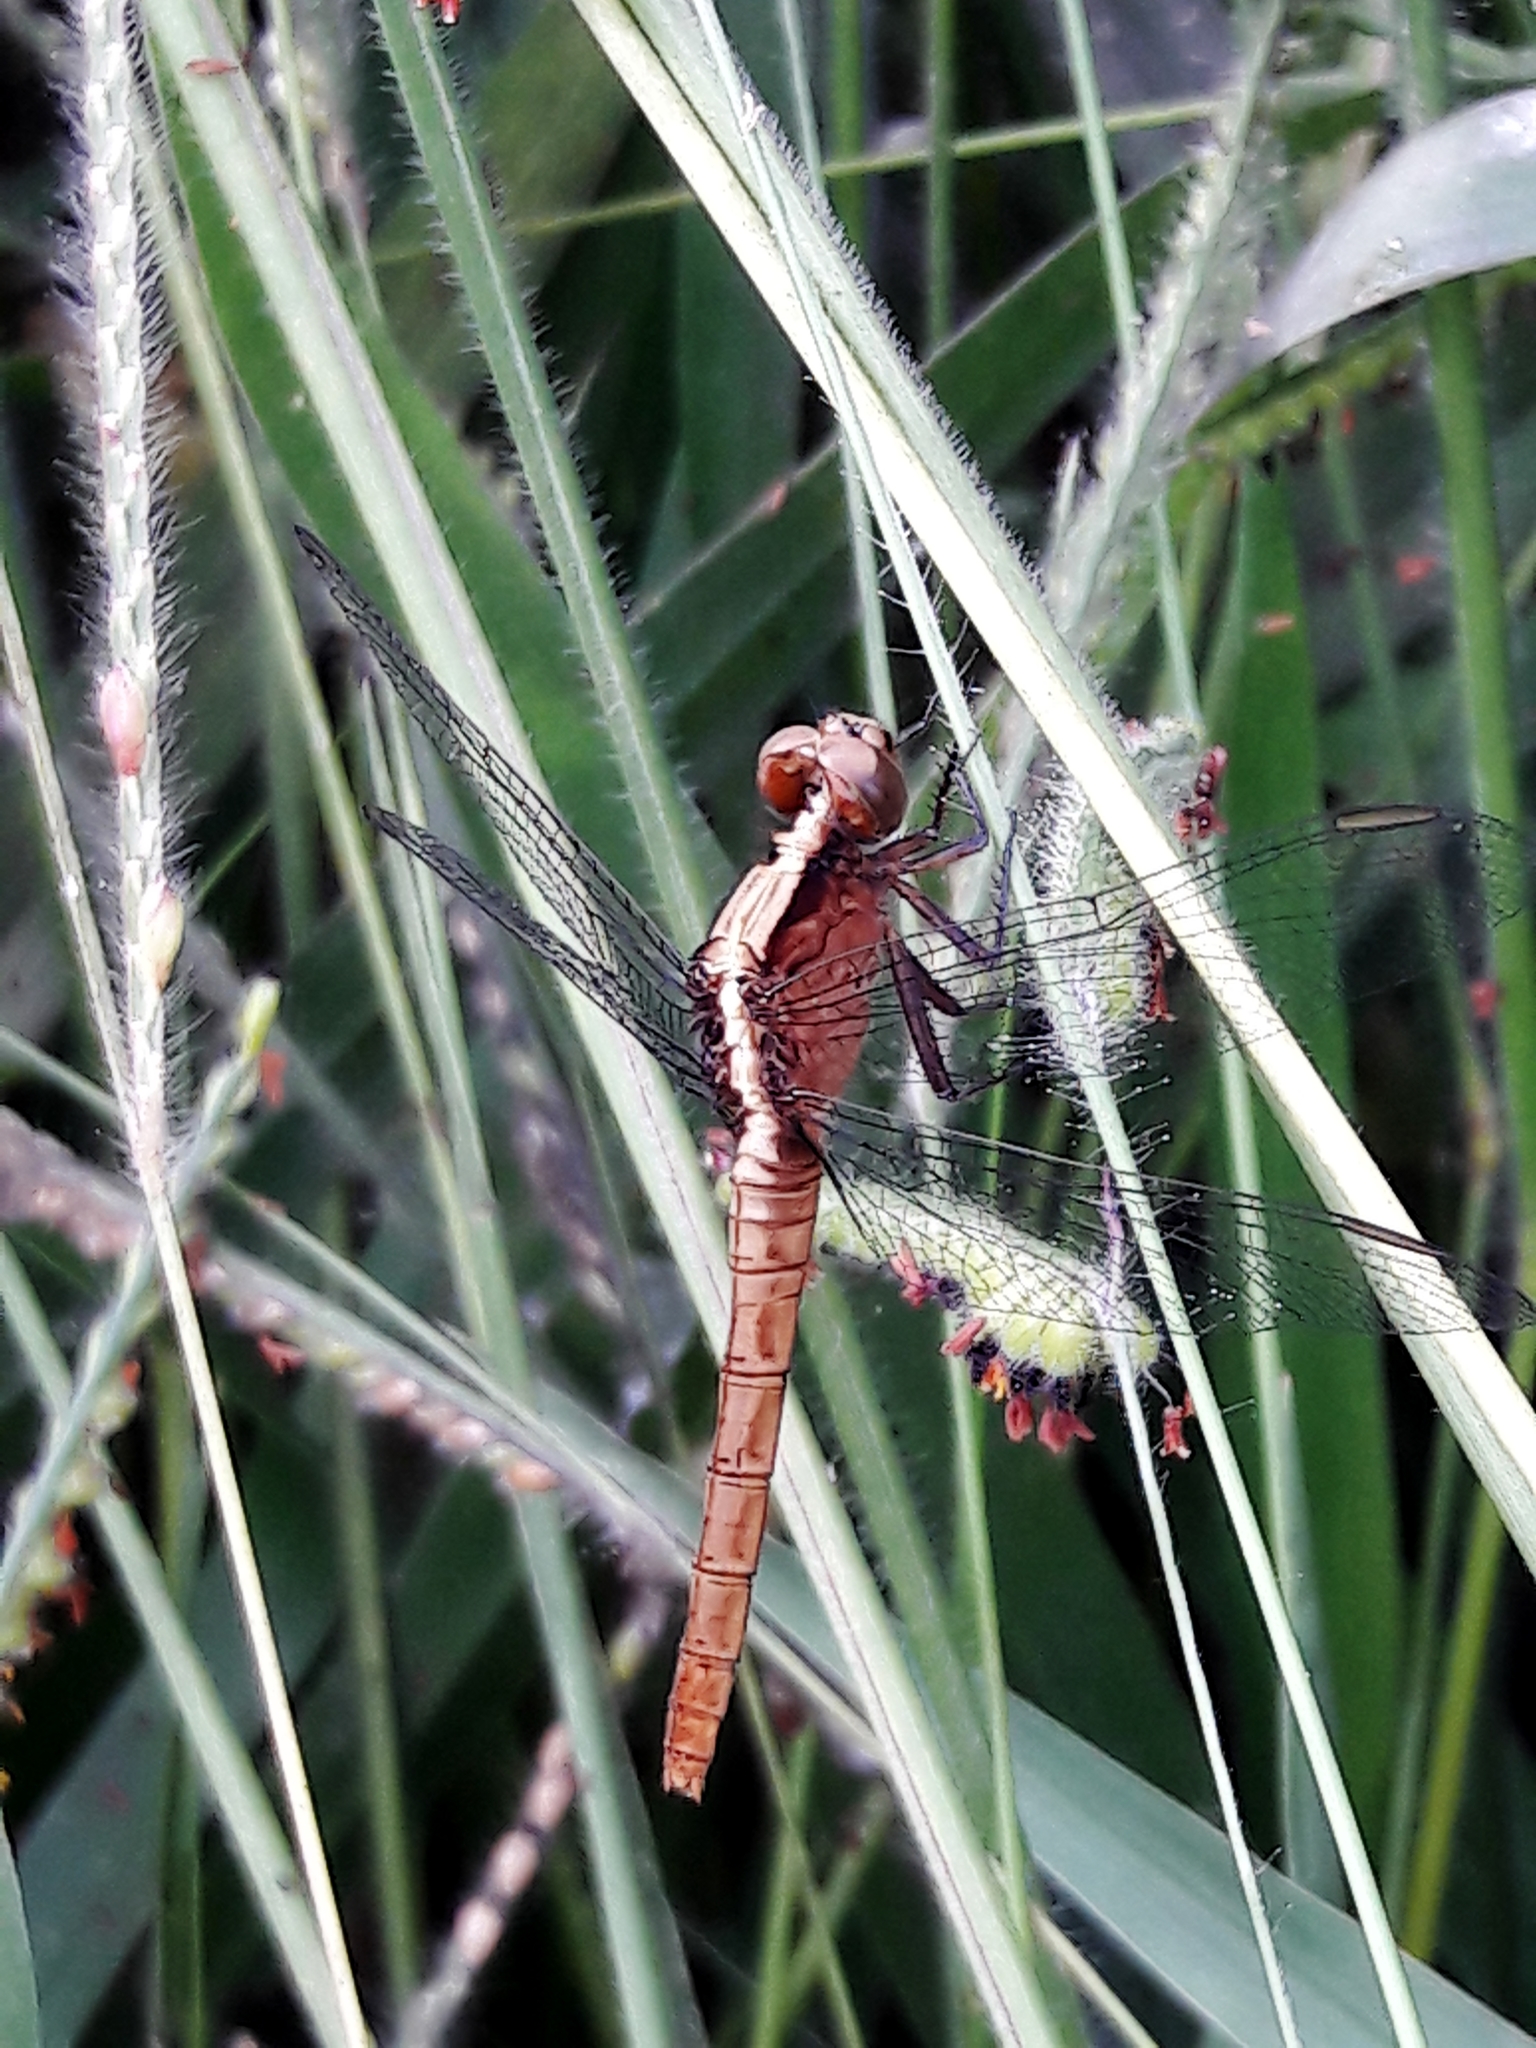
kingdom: Animalia
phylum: Arthropoda
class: Insecta
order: Odonata
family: Libellulidae
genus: Erythemis
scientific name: Erythemis peruviana
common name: Flame-tailed pondhawk
